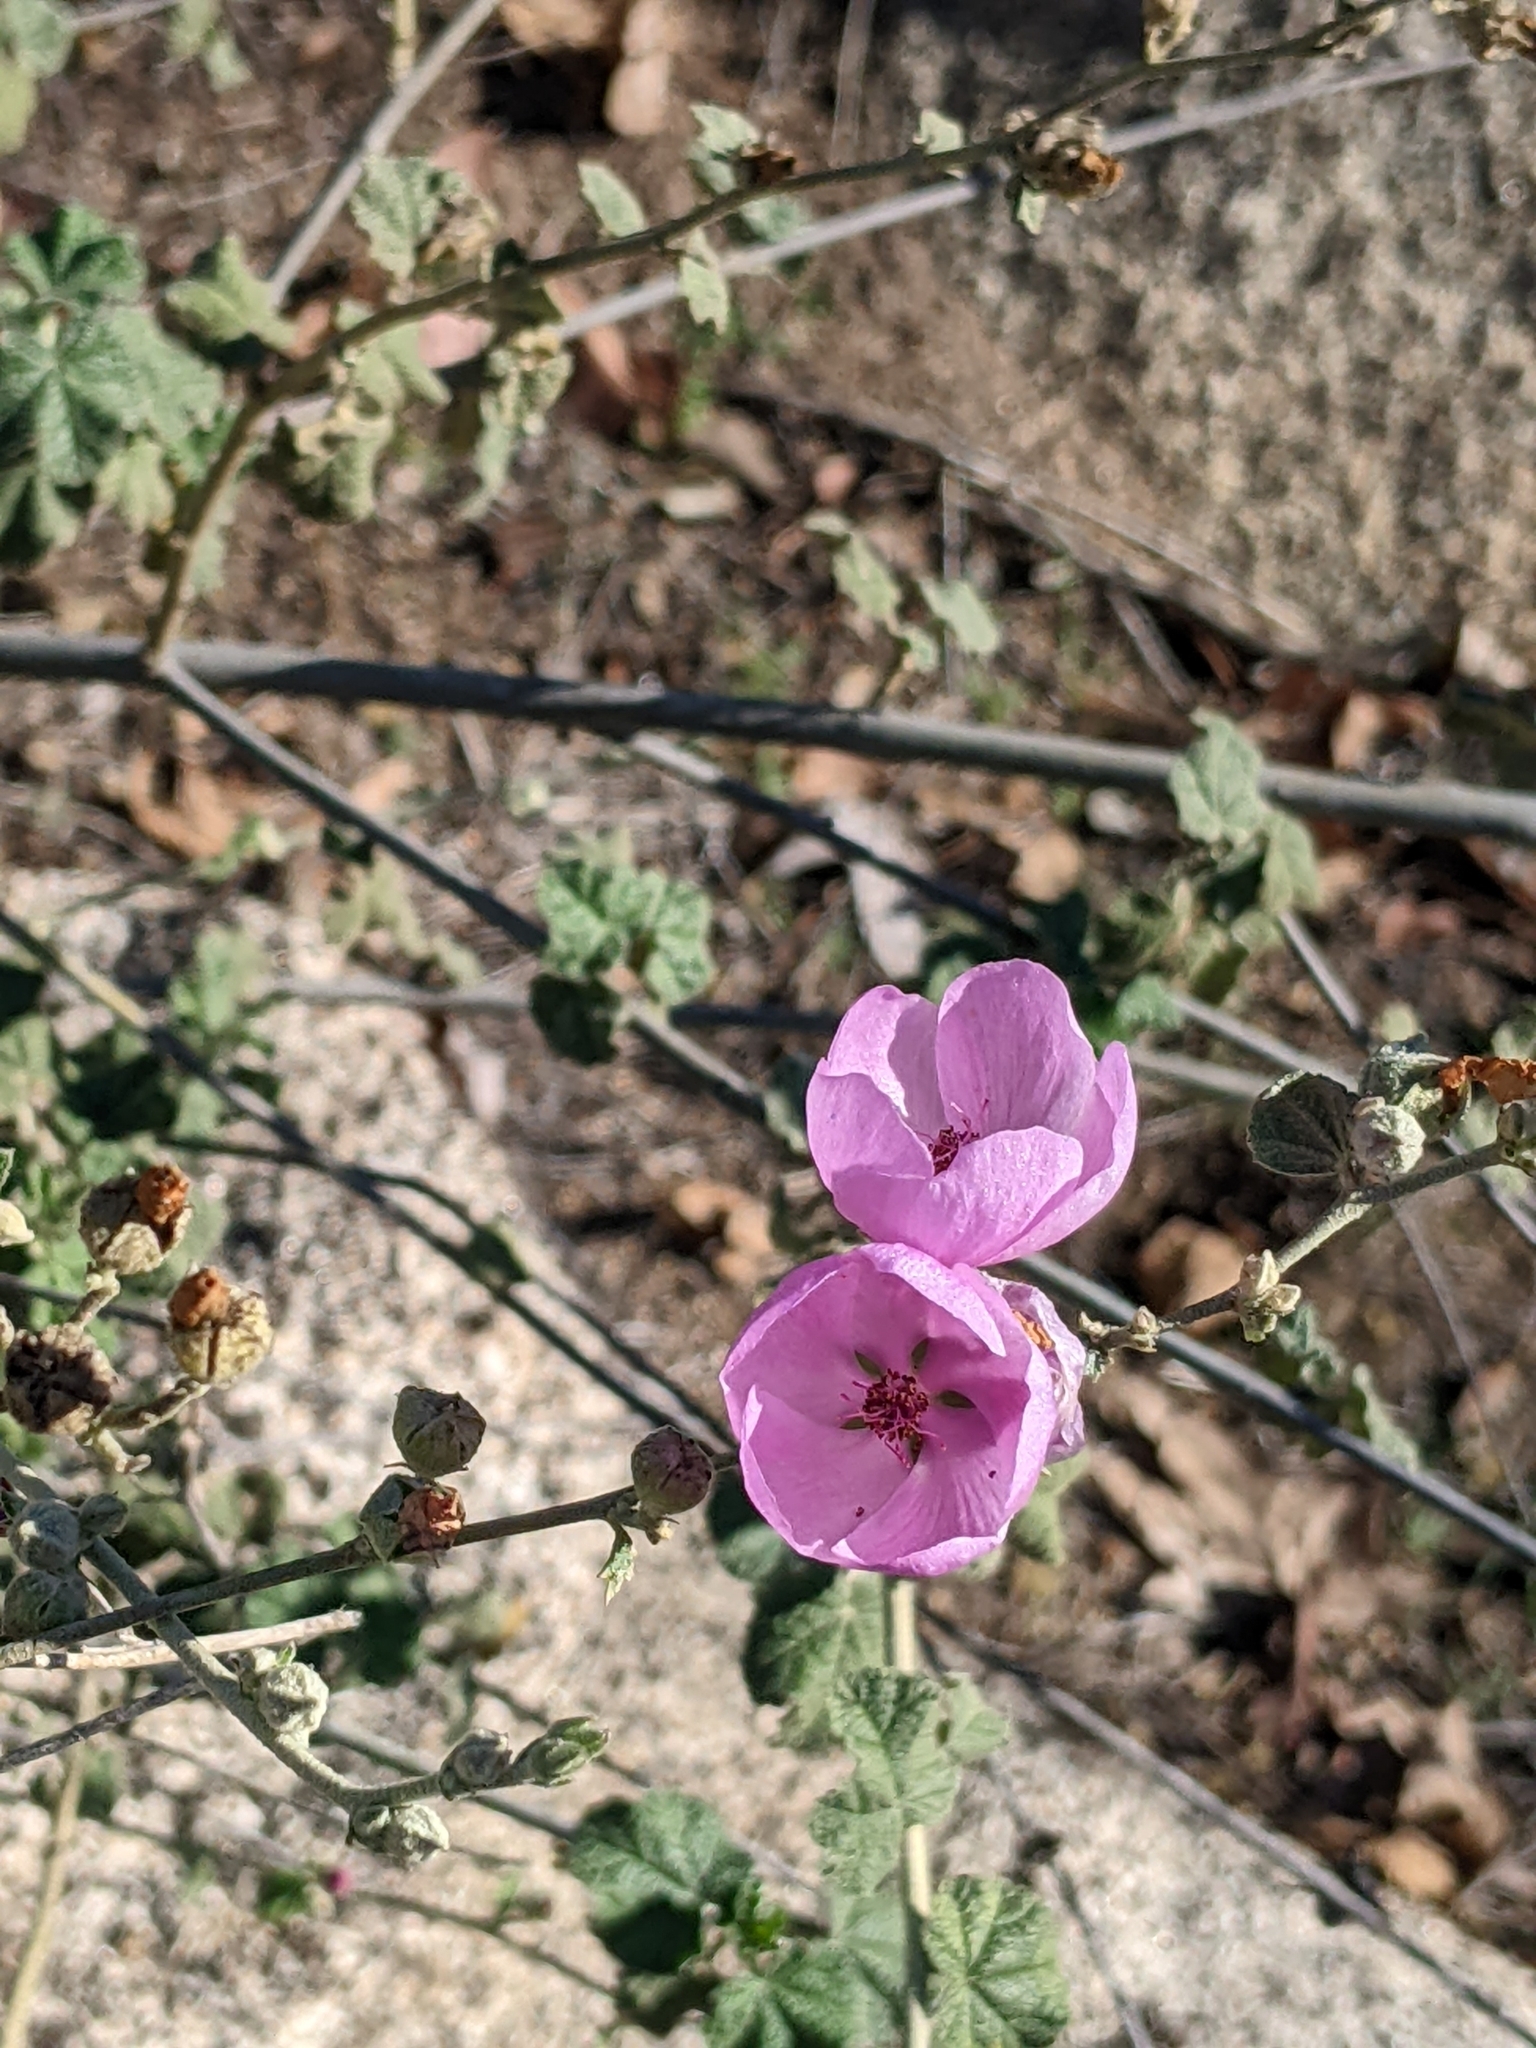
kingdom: Plantae
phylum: Tracheophyta
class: Magnoliopsida
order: Malvales
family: Malvaceae
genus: Malacothamnus
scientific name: Malacothamnus fasciculatus
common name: Sant cruz island bush-mallow
